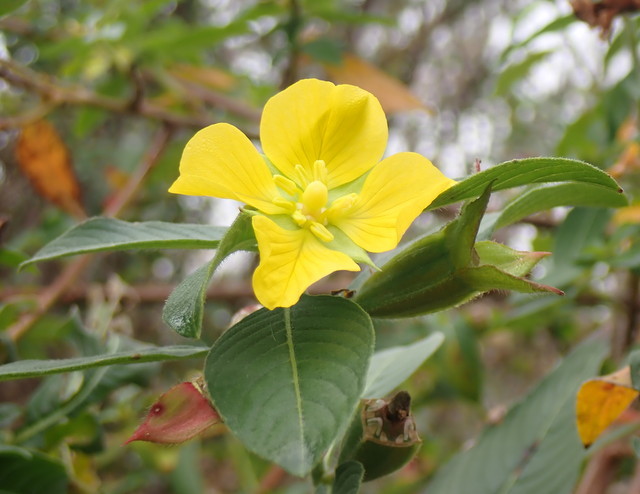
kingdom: Plantae
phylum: Tracheophyta
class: Magnoliopsida
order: Myrtales
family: Onagraceae
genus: Ludwigia
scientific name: Ludwigia peruviana
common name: Peruvian primrose-willow
